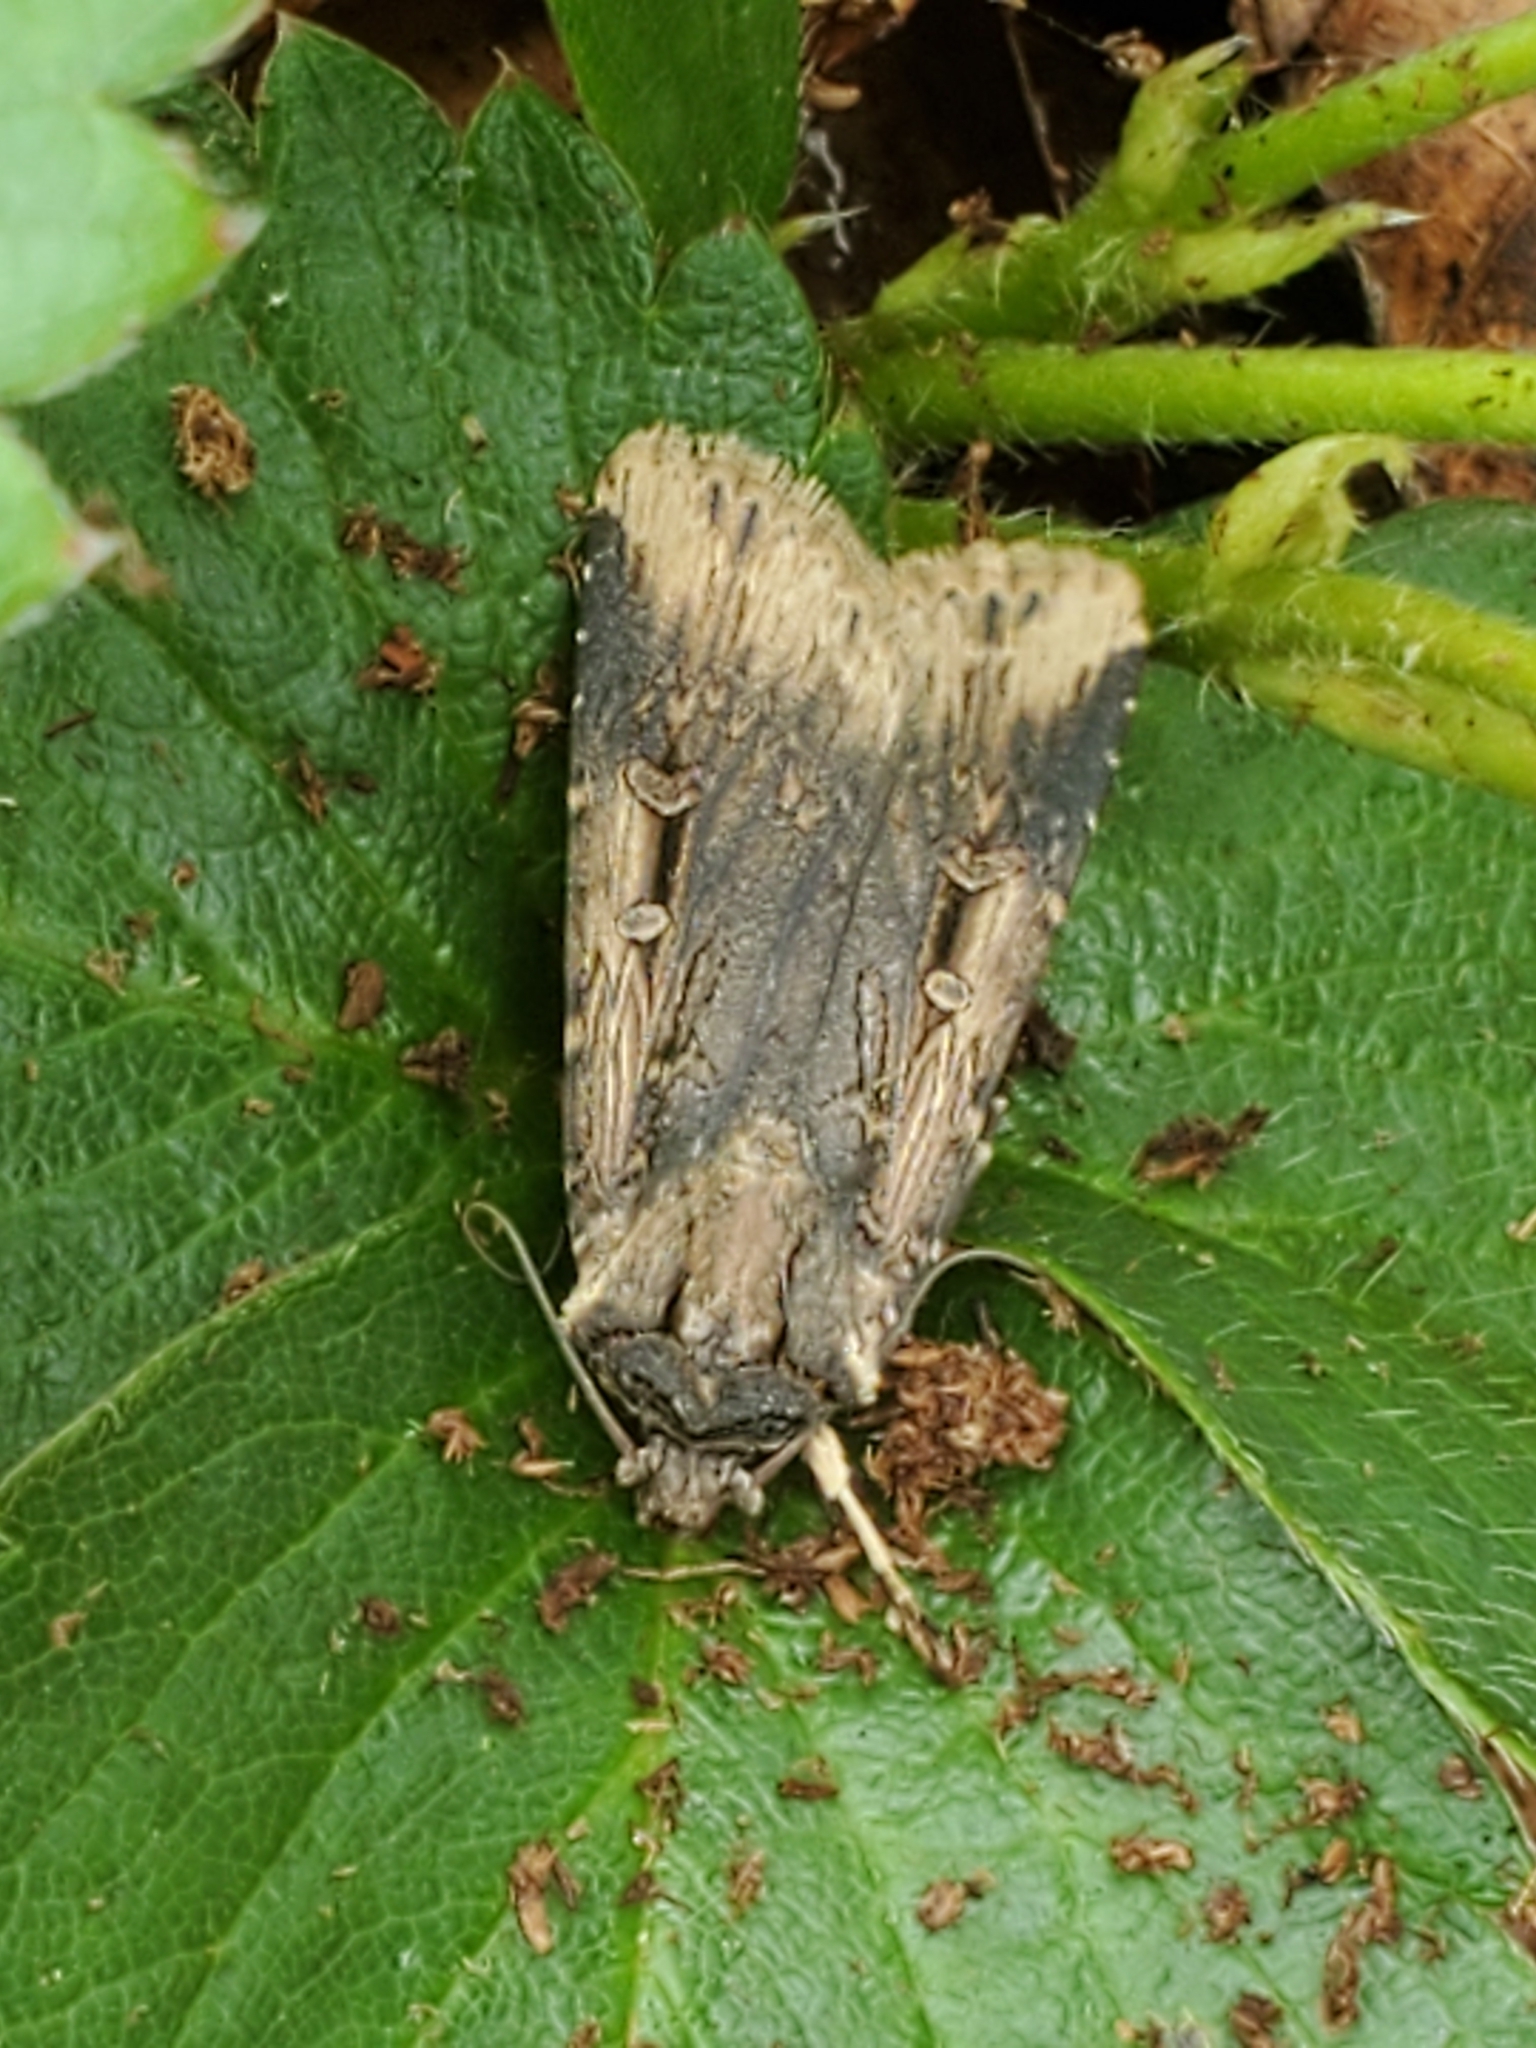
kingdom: Animalia
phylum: Arthropoda
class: Insecta
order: Lepidoptera
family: Noctuidae
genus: Feltia
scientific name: Feltia subterranea
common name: Granulate cutworm
